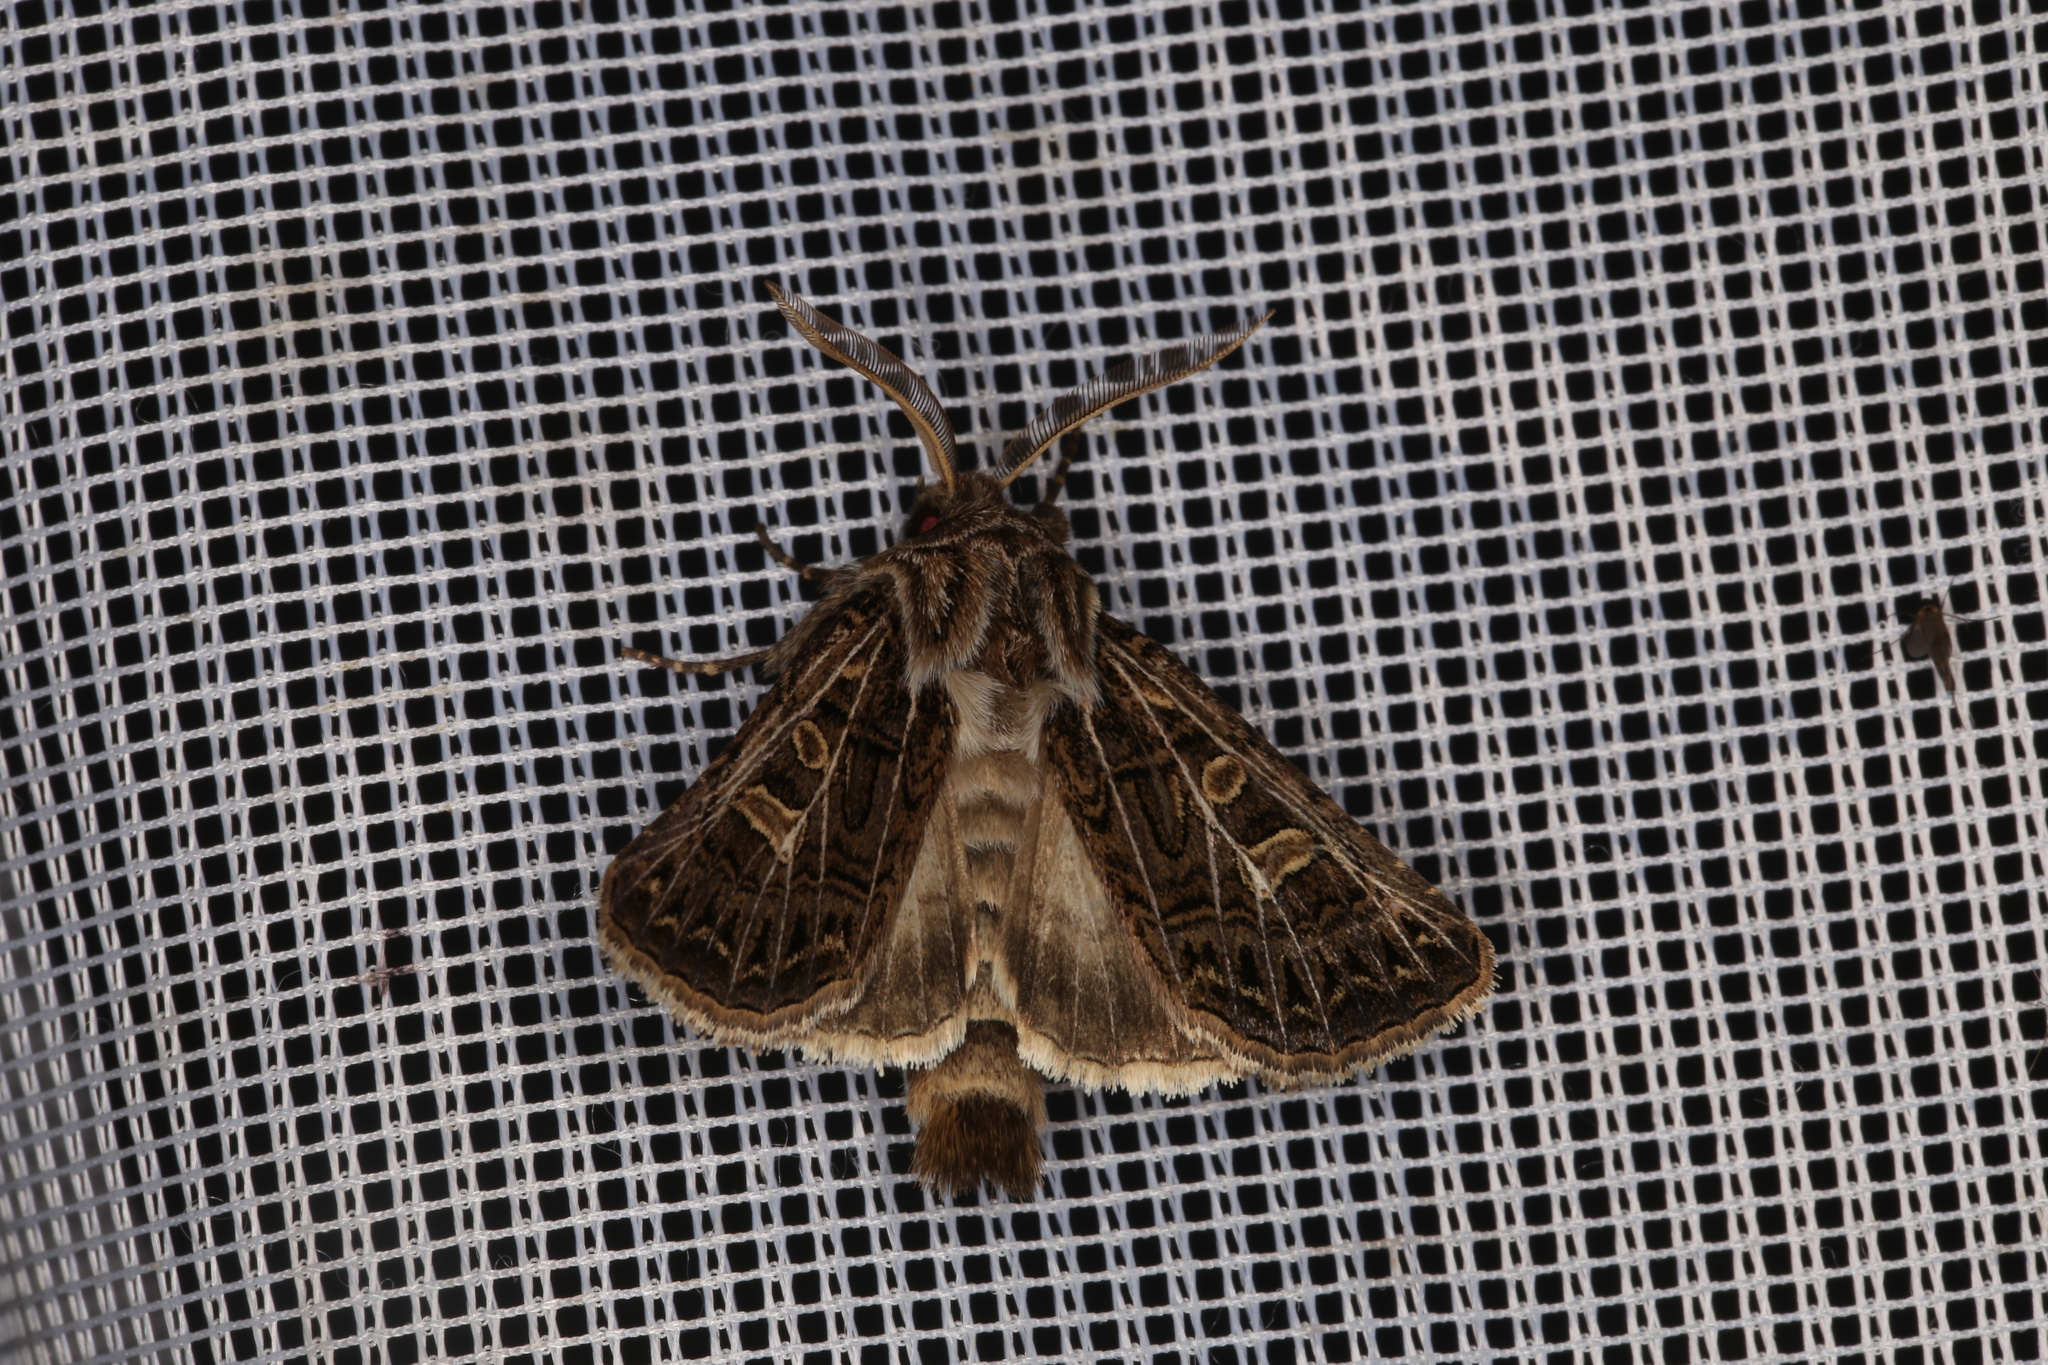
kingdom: Animalia
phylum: Arthropoda
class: Insecta
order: Lepidoptera
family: Noctuidae
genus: Tholera
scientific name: Tholera decimalis
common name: Feathered gothic
